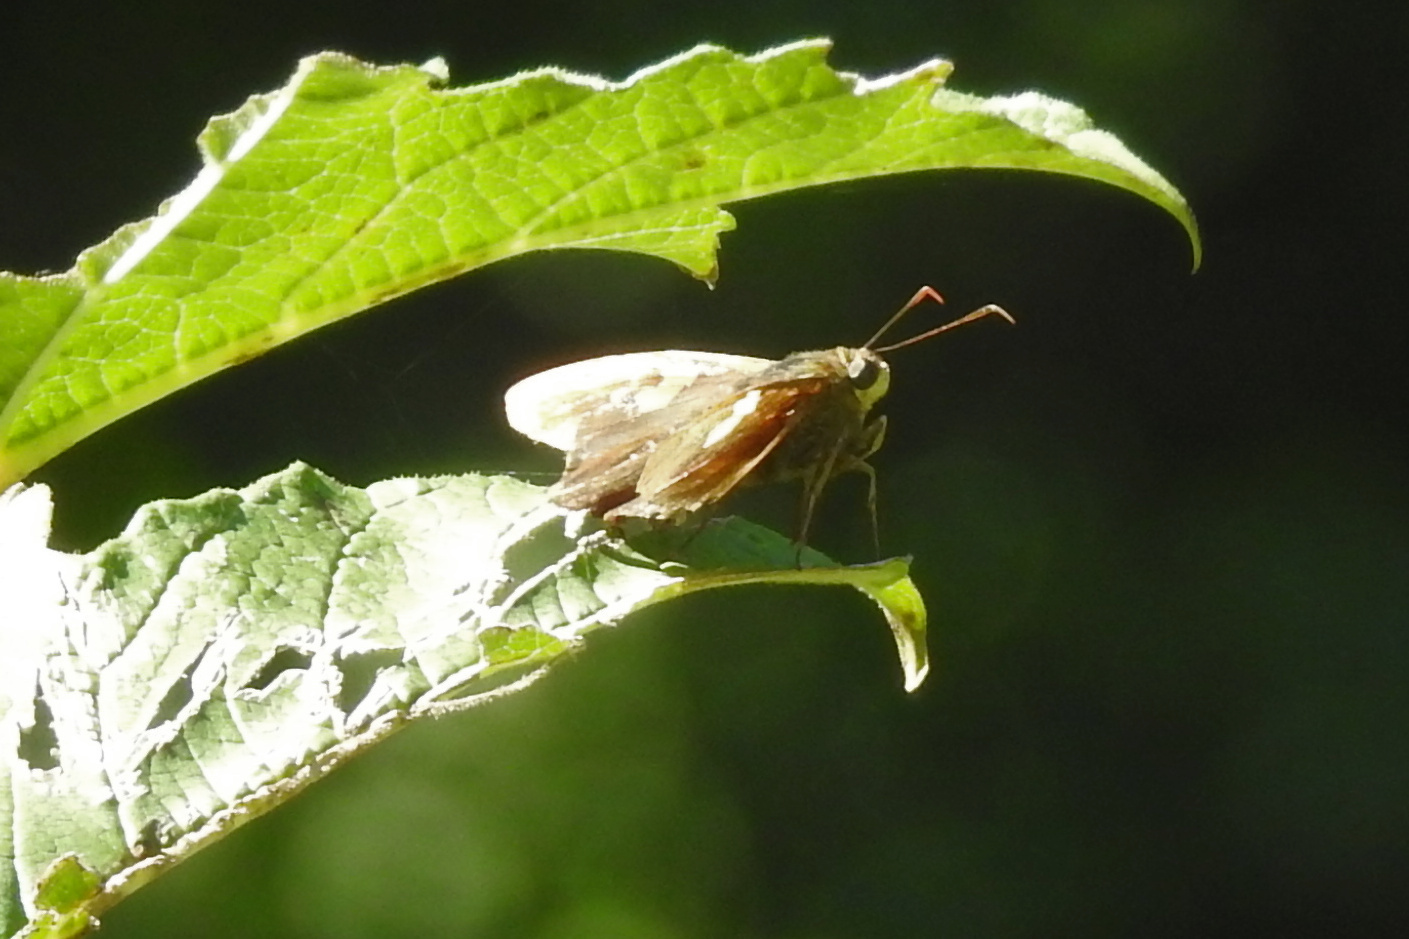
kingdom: Animalia
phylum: Arthropoda
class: Insecta
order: Lepidoptera
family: Hesperiidae
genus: Epargyreus
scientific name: Epargyreus clarus
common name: Silver-spotted skipper
